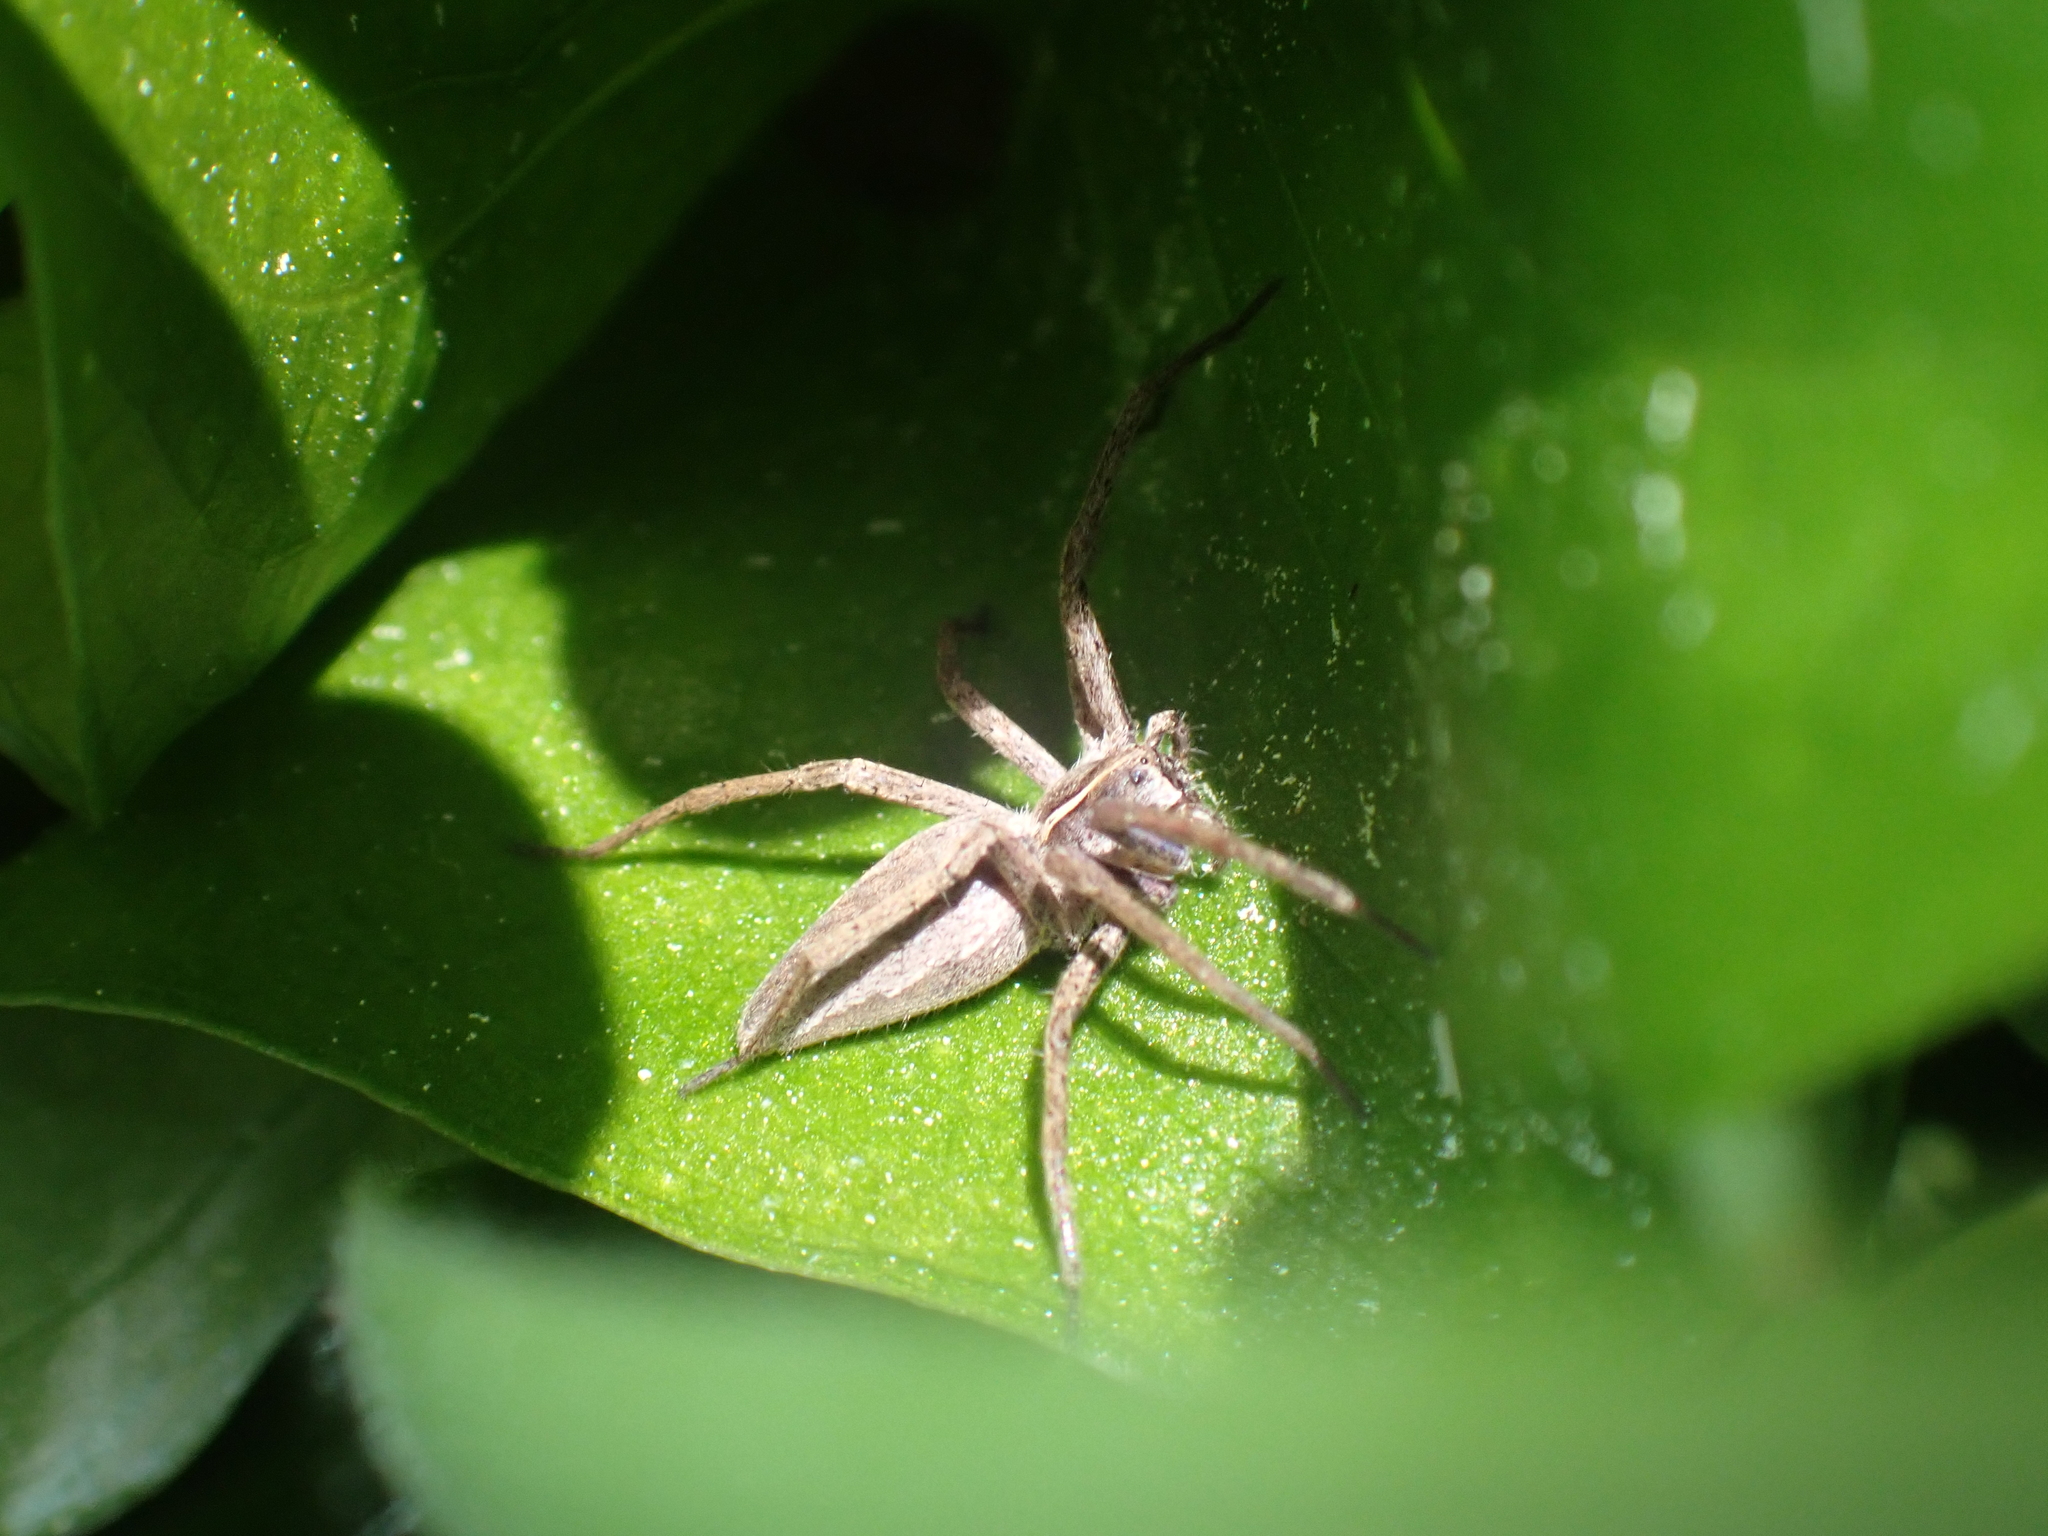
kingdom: Animalia
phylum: Arthropoda
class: Arachnida
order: Araneae
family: Pisauridae
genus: Pisaura
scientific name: Pisaura mirabilis
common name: Tent spider
